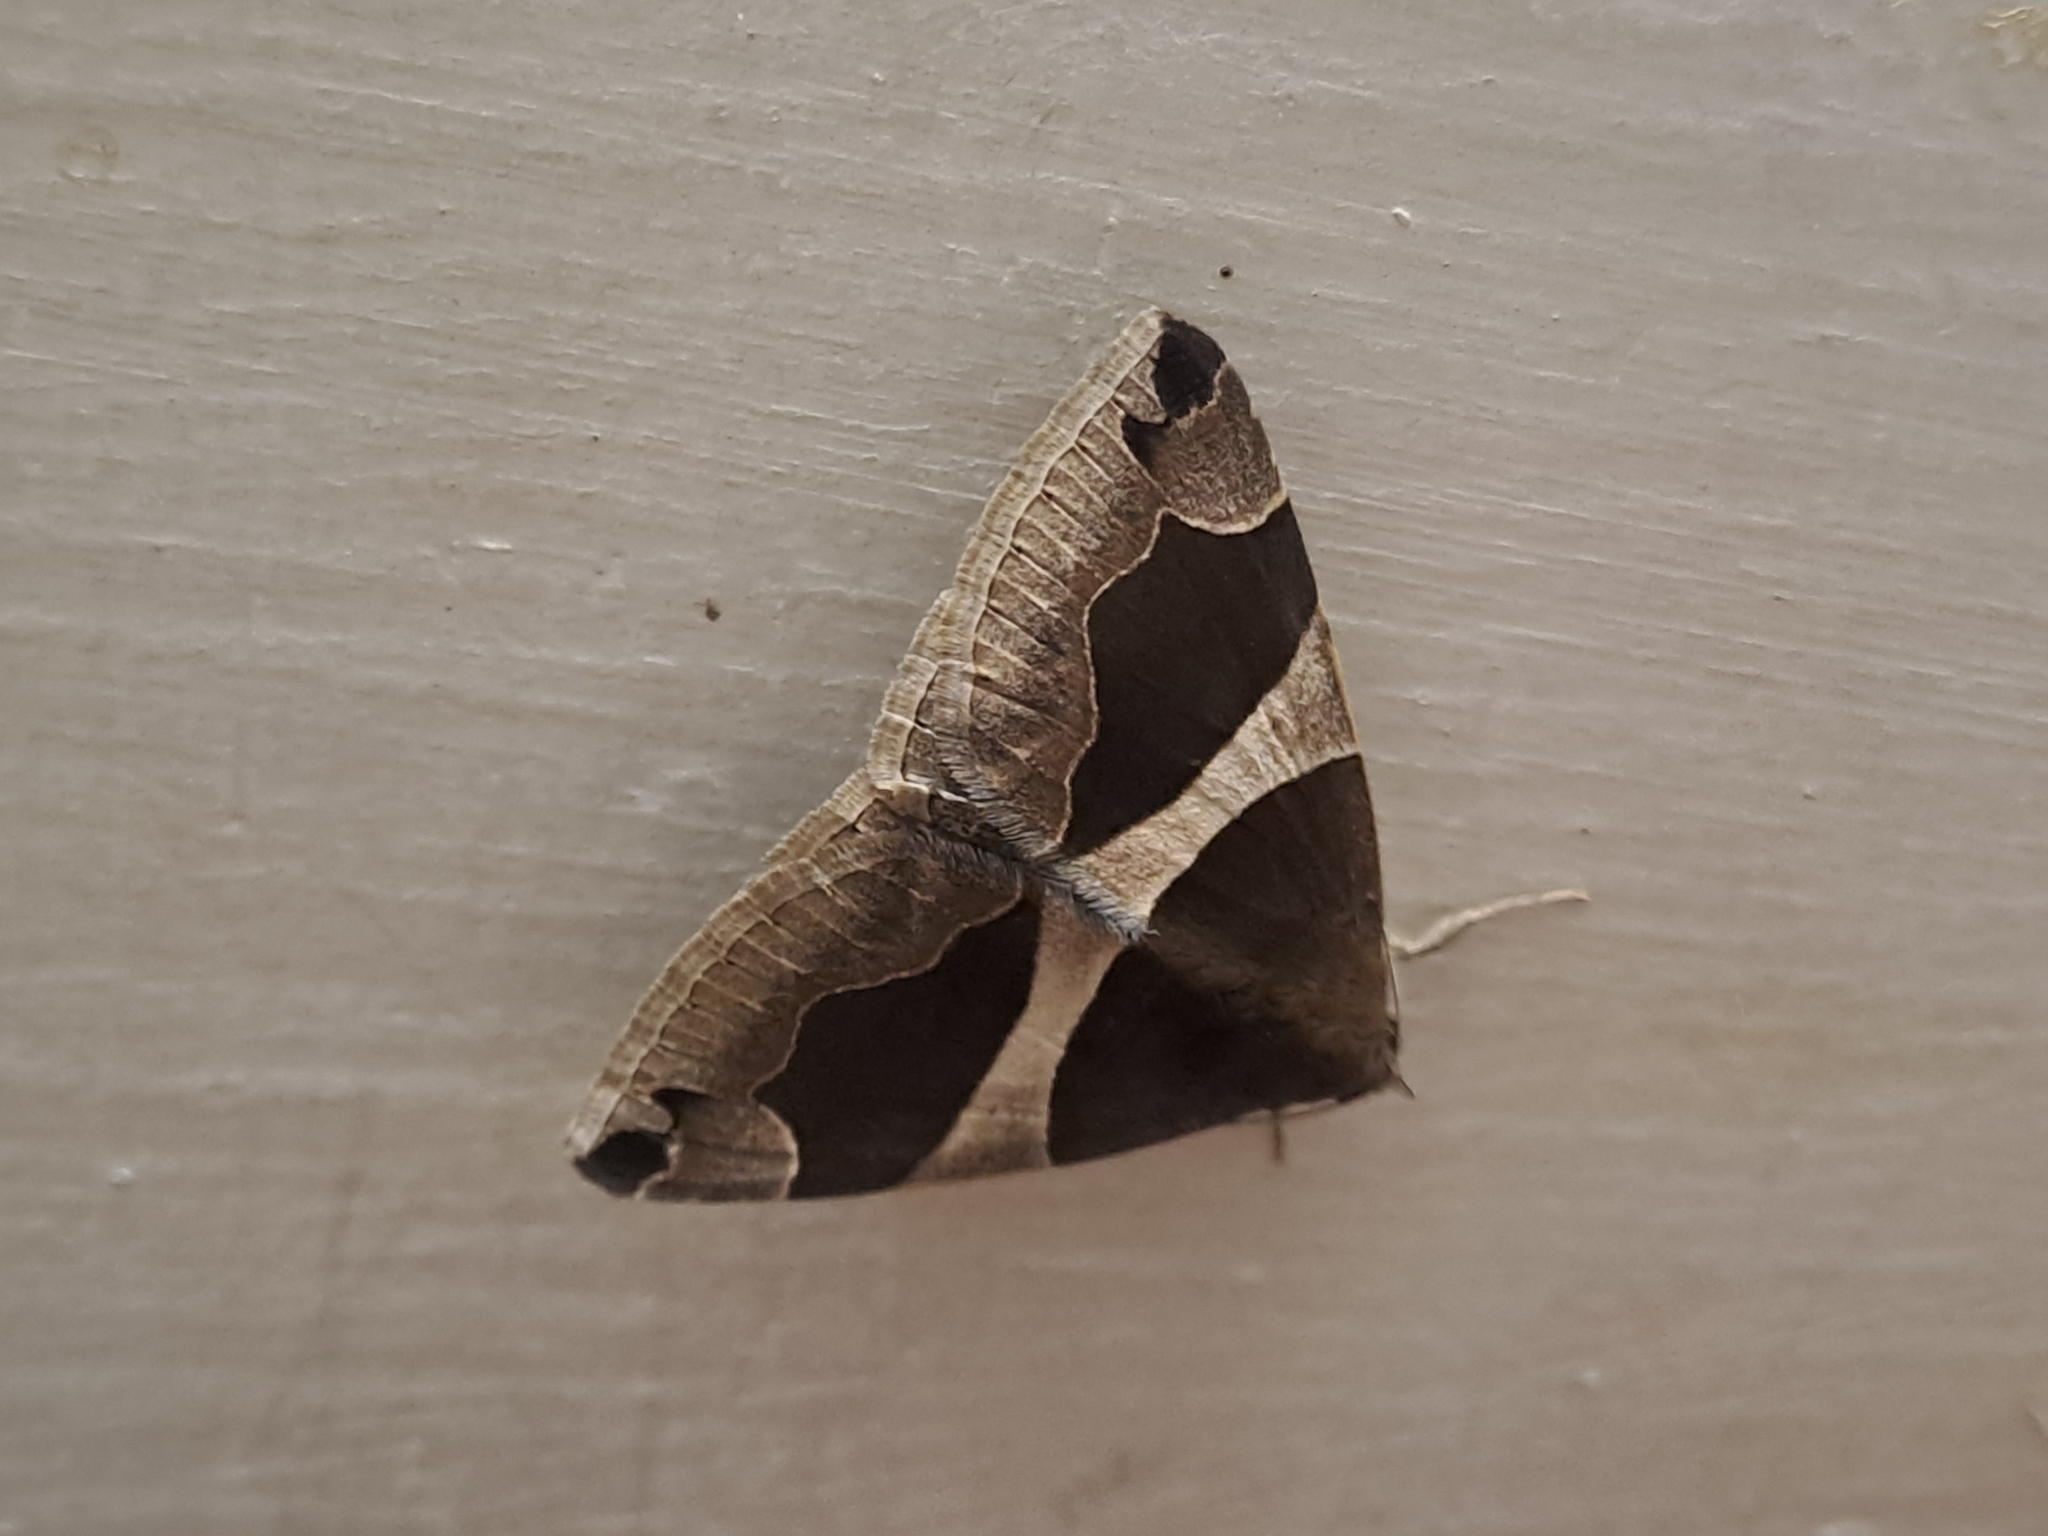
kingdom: Animalia
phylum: Arthropoda
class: Insecta
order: Lepidoptera
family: Erebidae
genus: Dysgonia
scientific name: Dysgonia torrida
